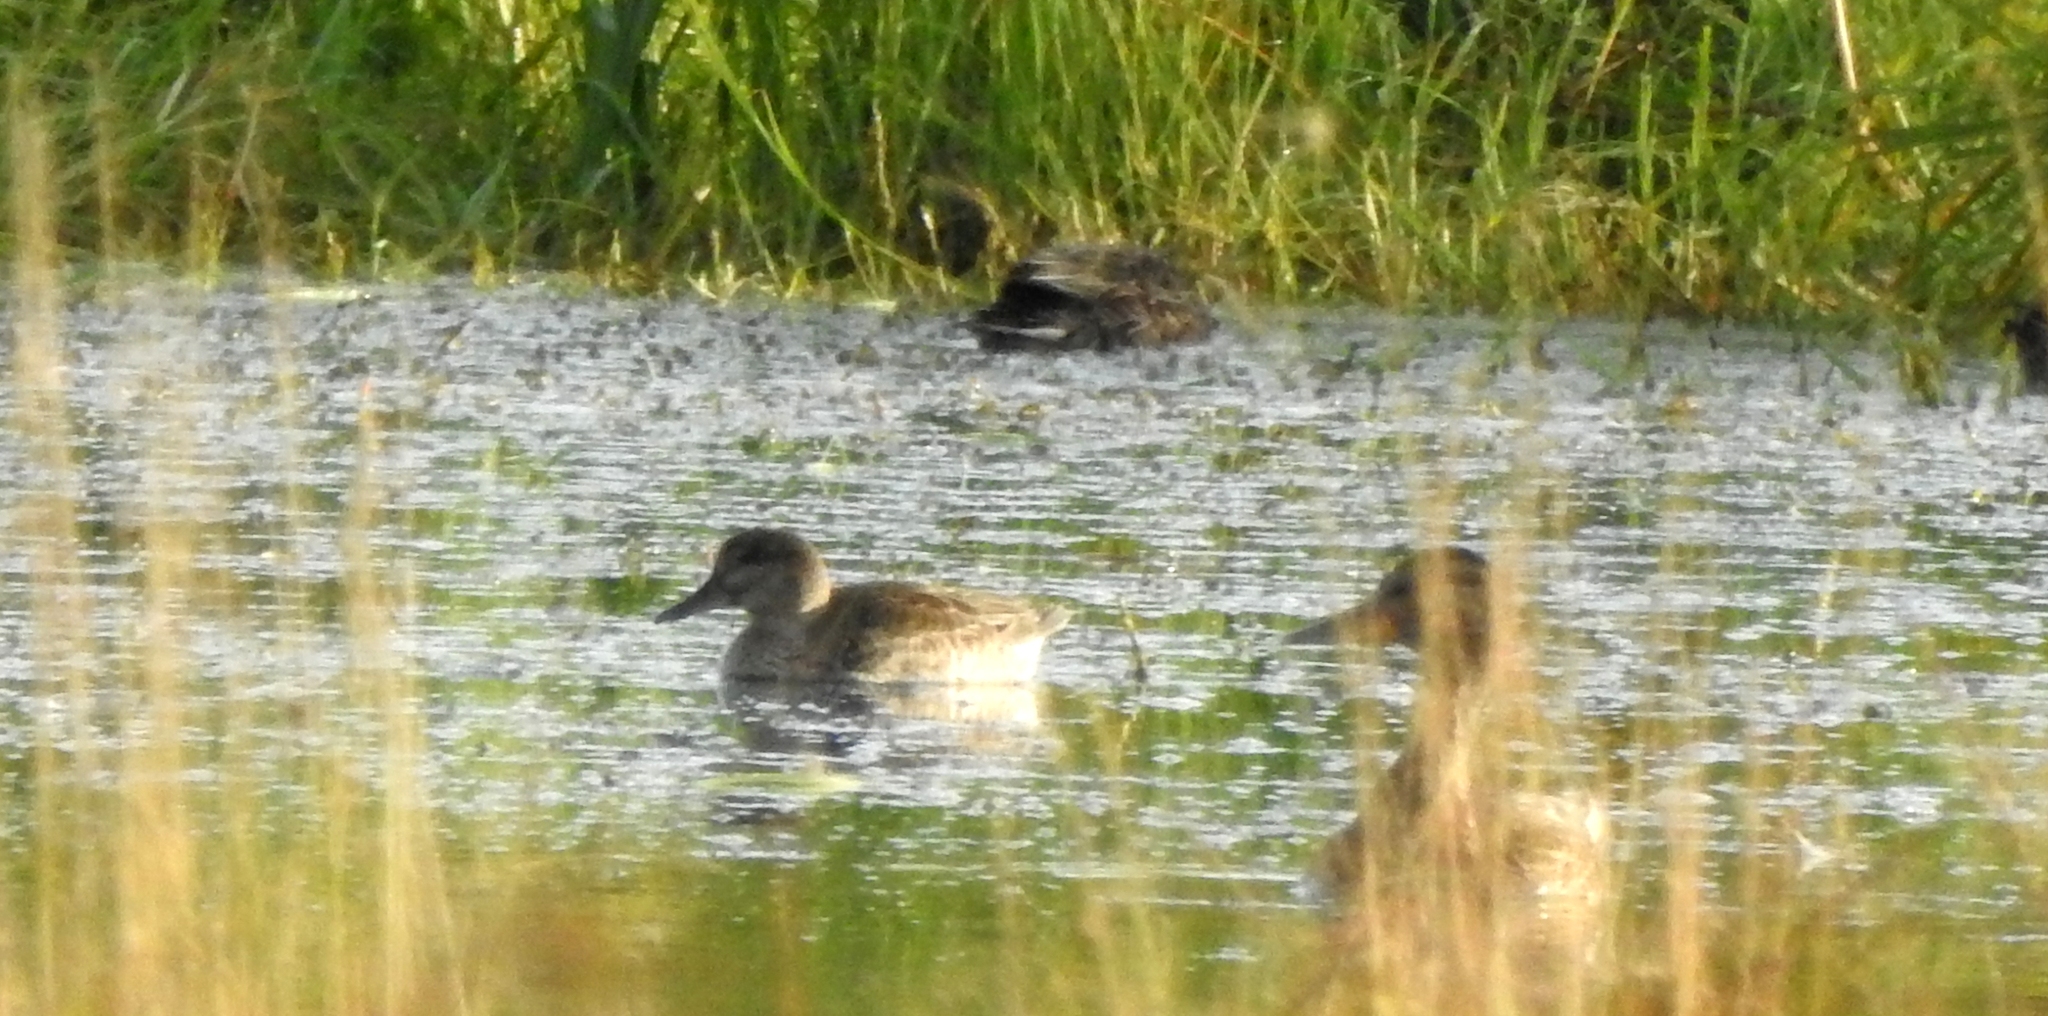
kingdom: Animalia
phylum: Chordata
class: Aves
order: Anseriformes
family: Anatidae
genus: Anas
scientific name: Anas crecca
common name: Eurasian teal
